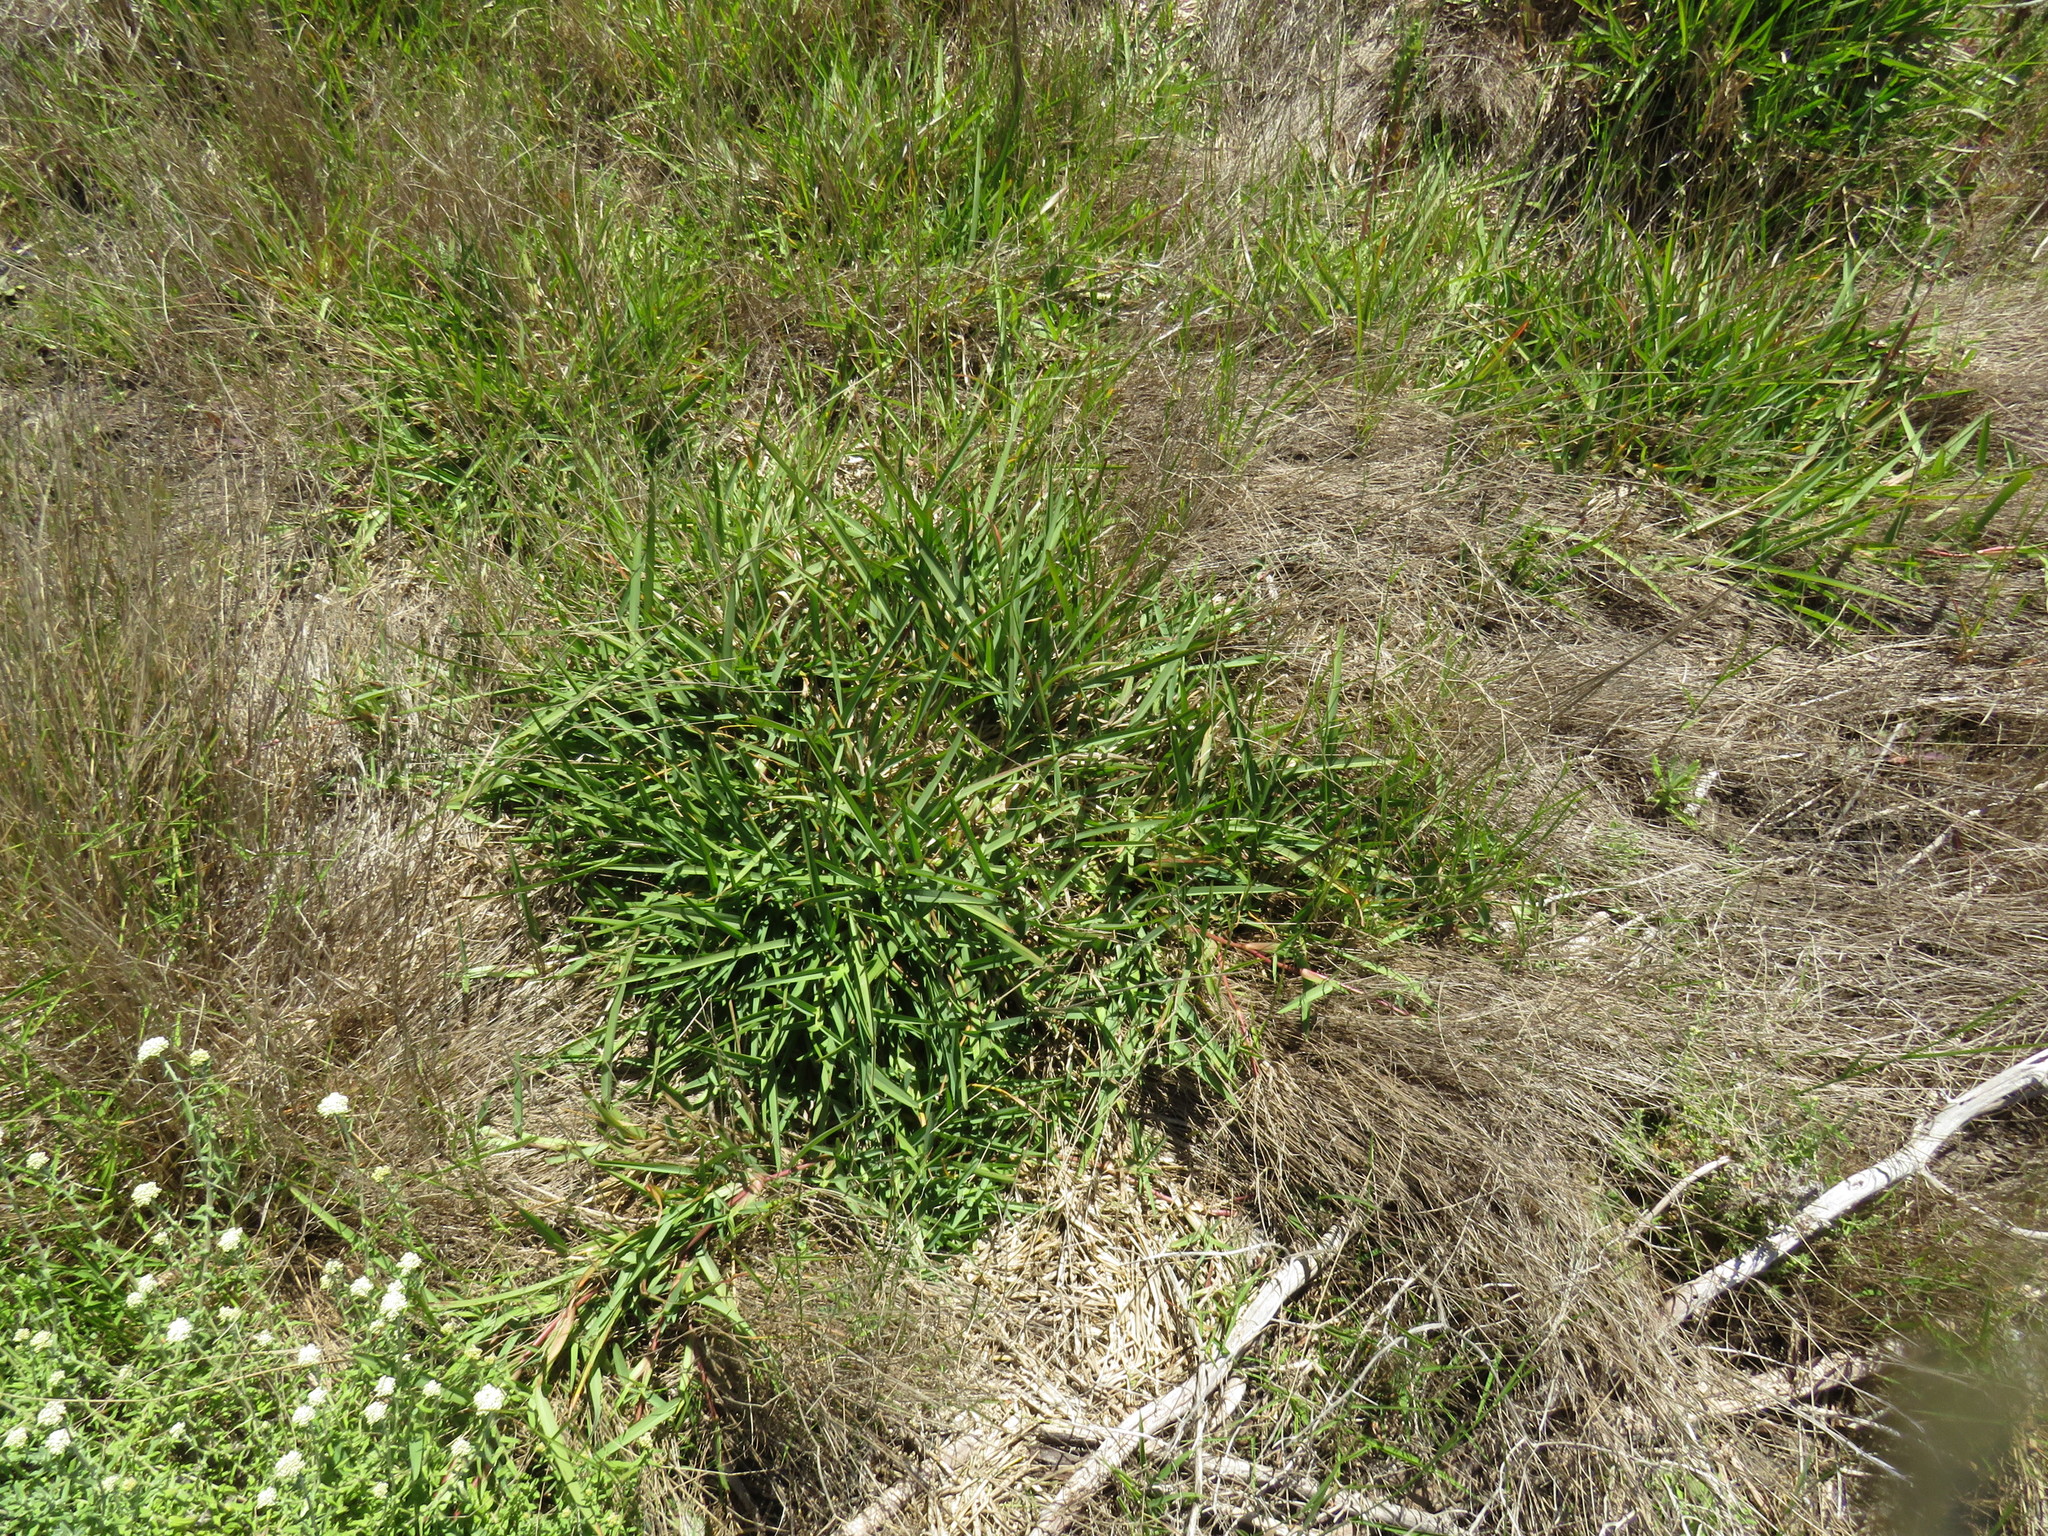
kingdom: Plantae
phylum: Tracheophyta
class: Liliopsida
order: Poales
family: Poaceae
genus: Stenotaphrum
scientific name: Stenotaphrum secundatum
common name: St. augustine grass
